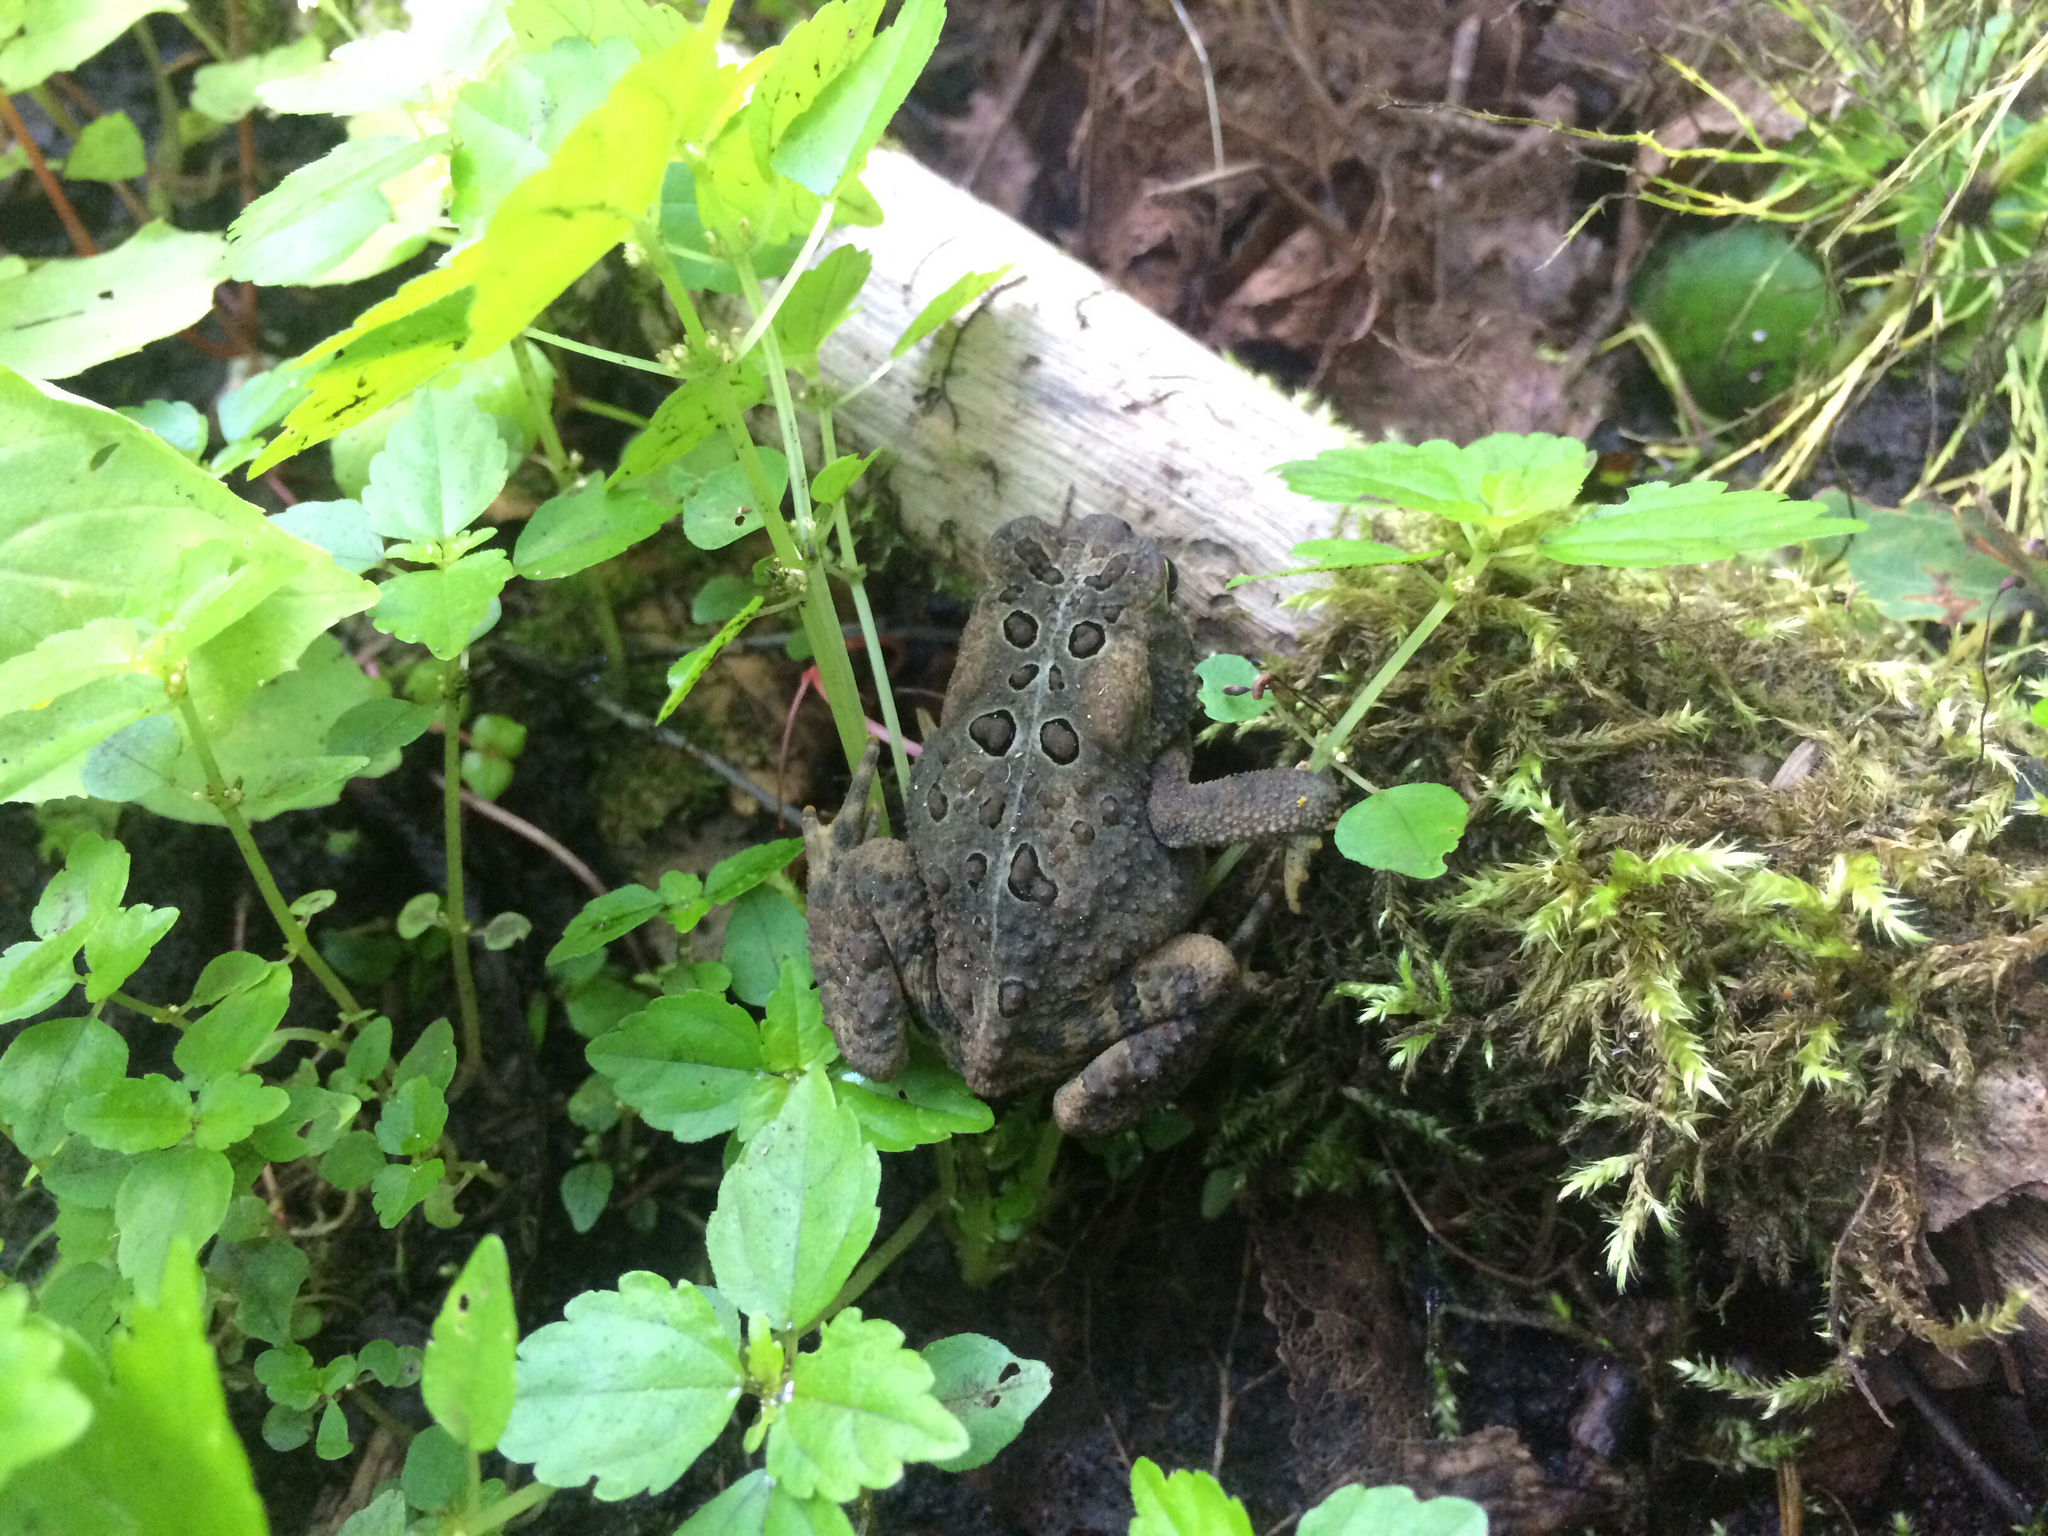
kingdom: Animalia
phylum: Chordata
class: Amphibia
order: Anura
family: Bufonidae
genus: Anaxyrus
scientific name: Anaxyrus americanus
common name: American toad
